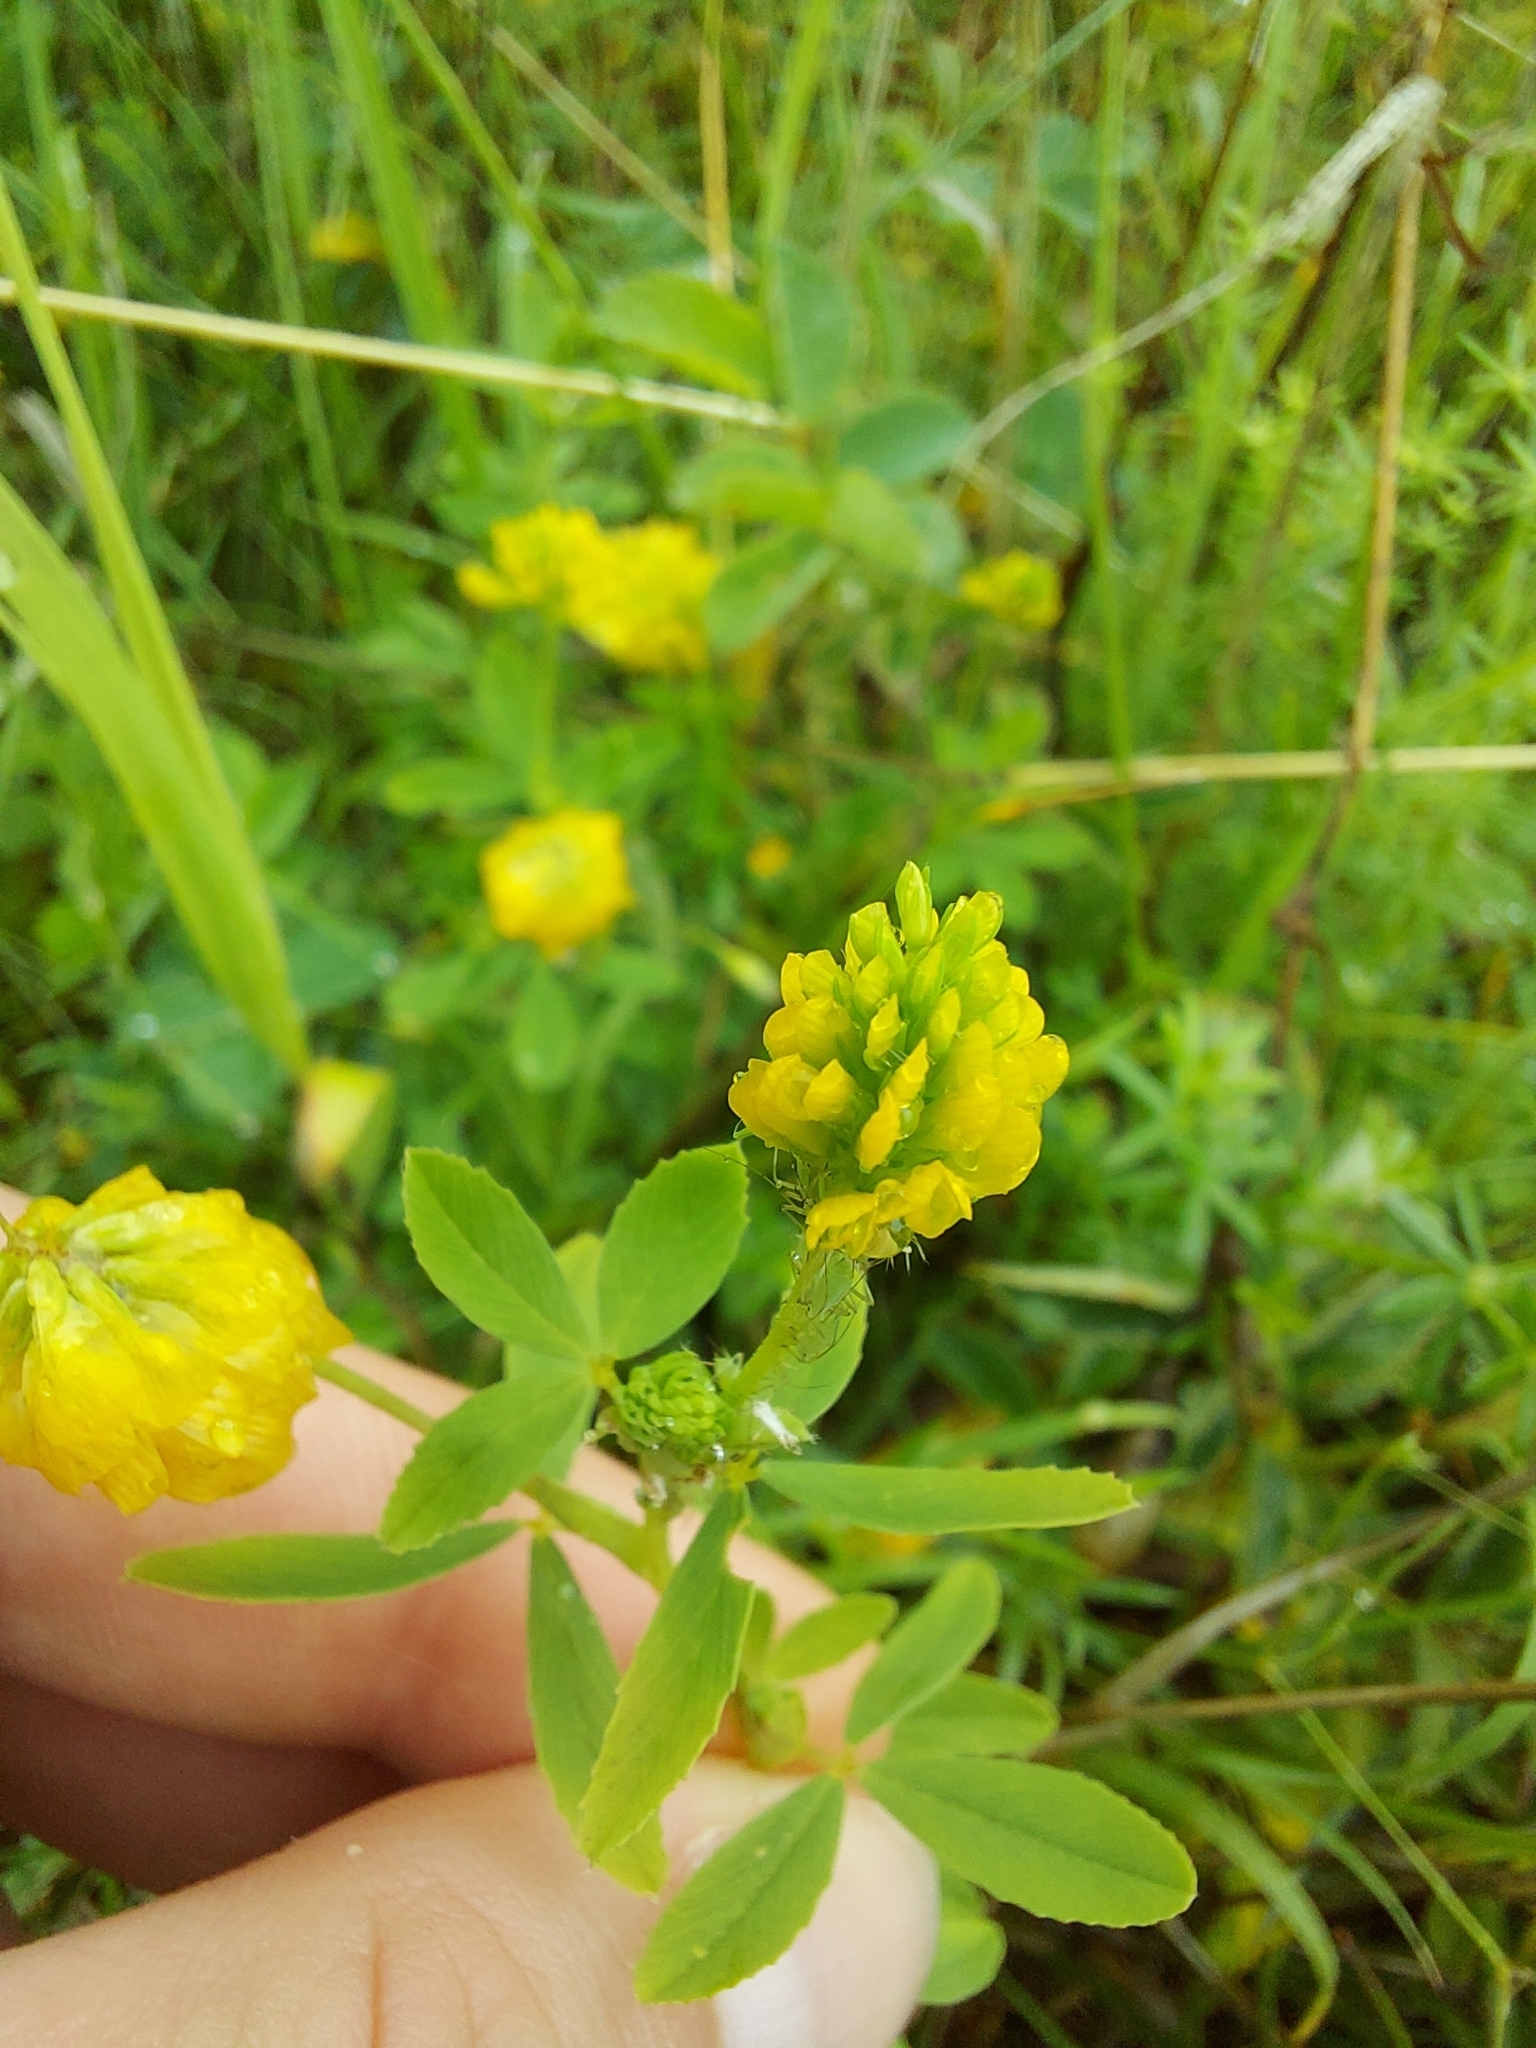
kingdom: Plantae
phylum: Tracheophyta
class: Magnoliopsida
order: Fabales
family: Fabaceae
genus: Trifolium
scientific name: Trifolium aureum
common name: Golden clover
